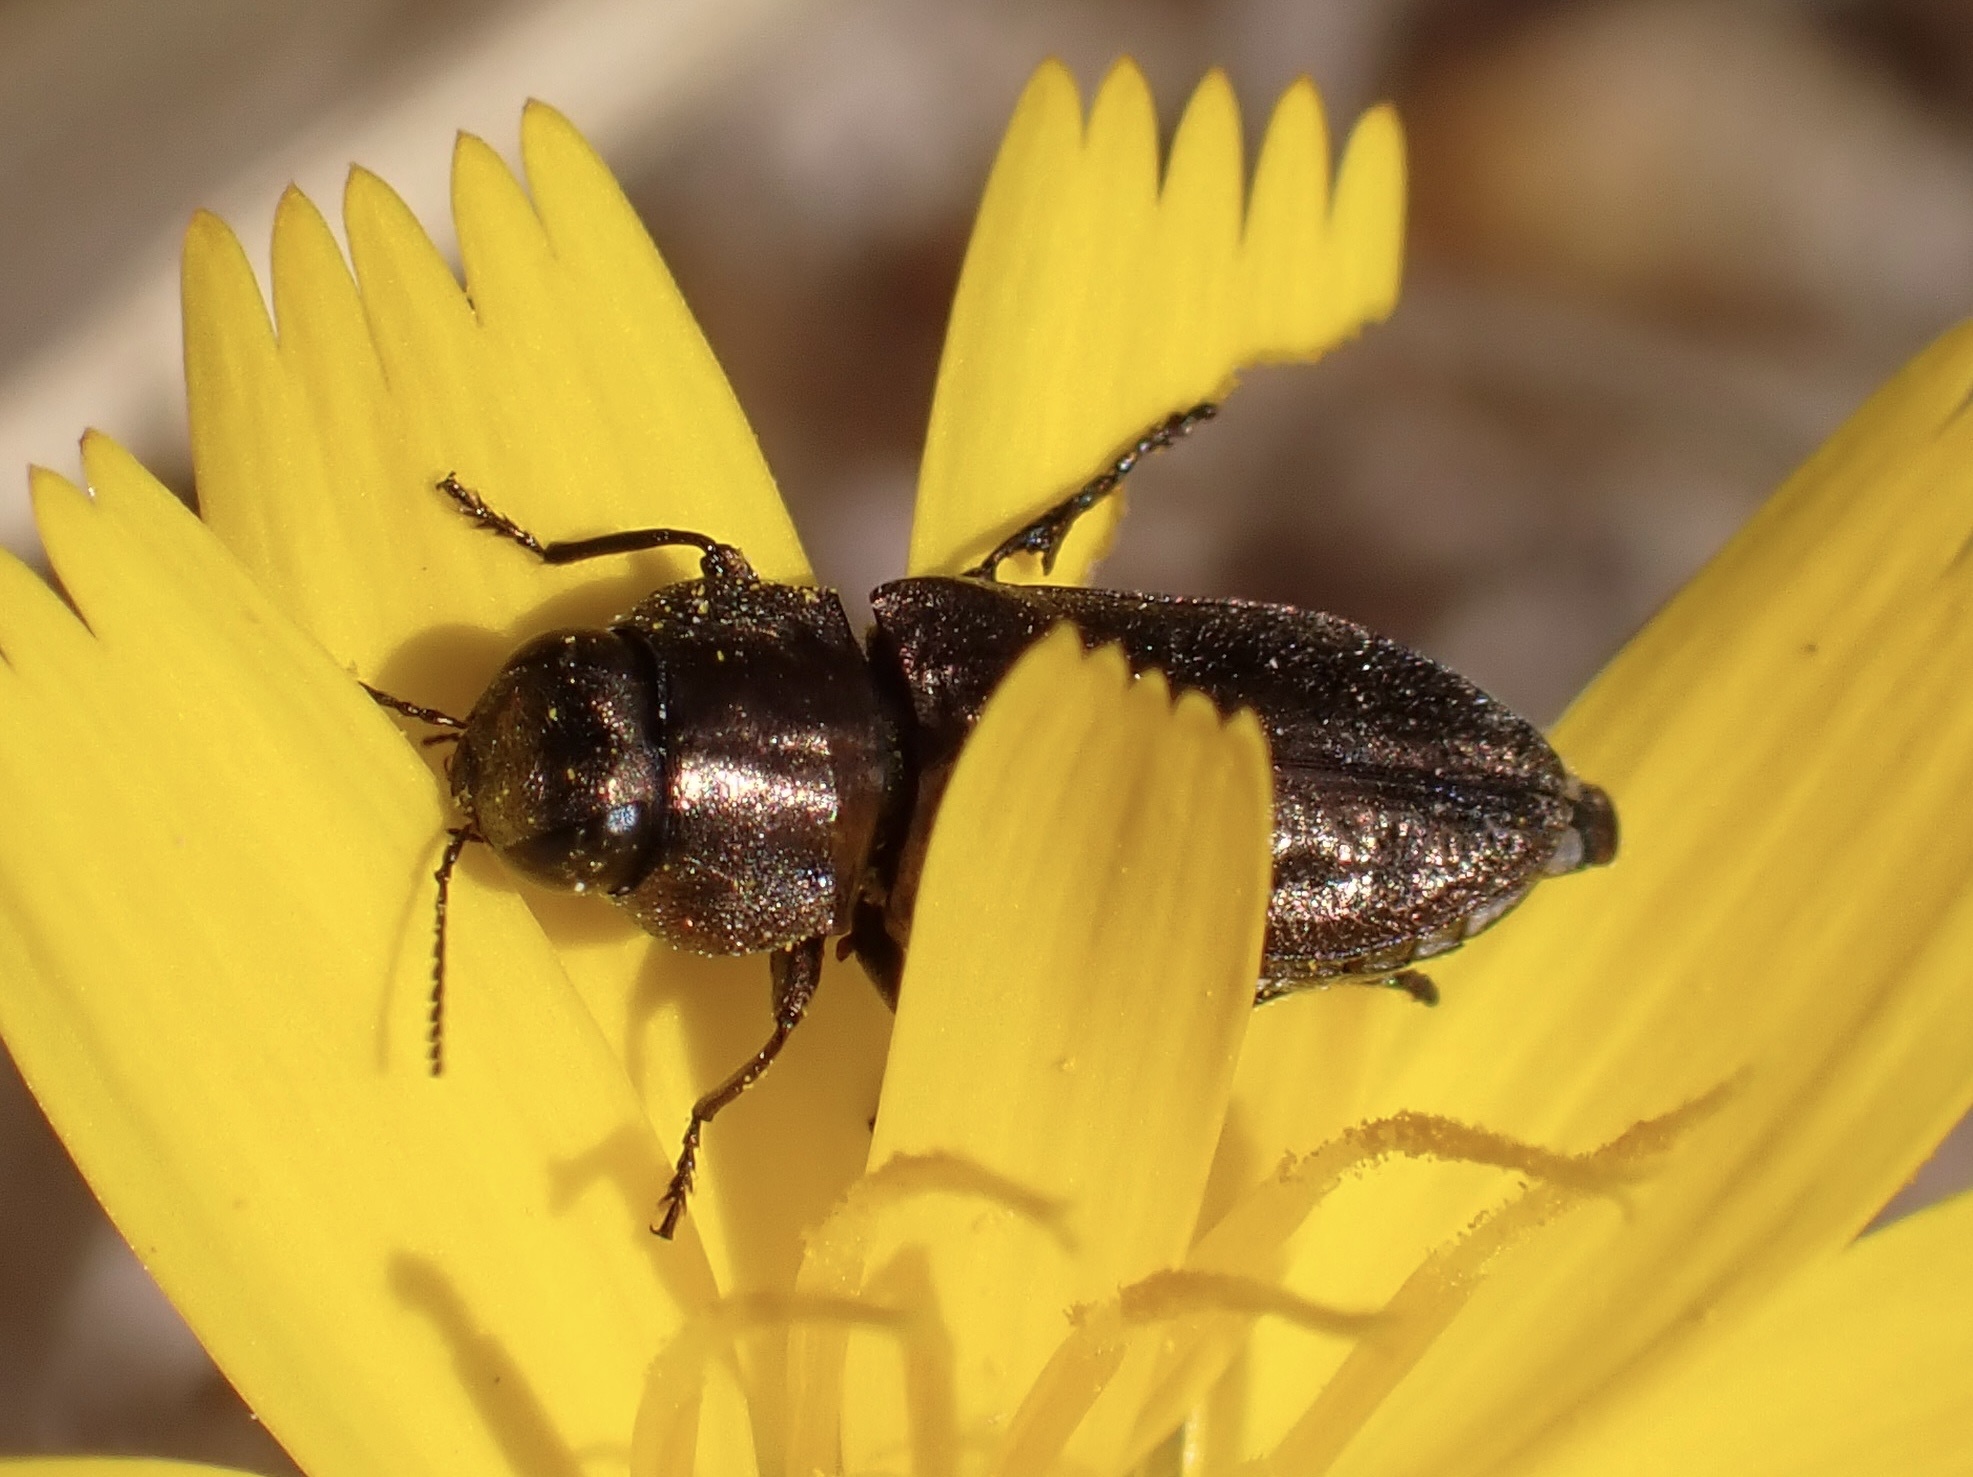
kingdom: Animalia
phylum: Arthropoda
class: Insecta
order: Coleoptera
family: Buprestidae
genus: Anthaxia
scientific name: Anthaxia fritschi
